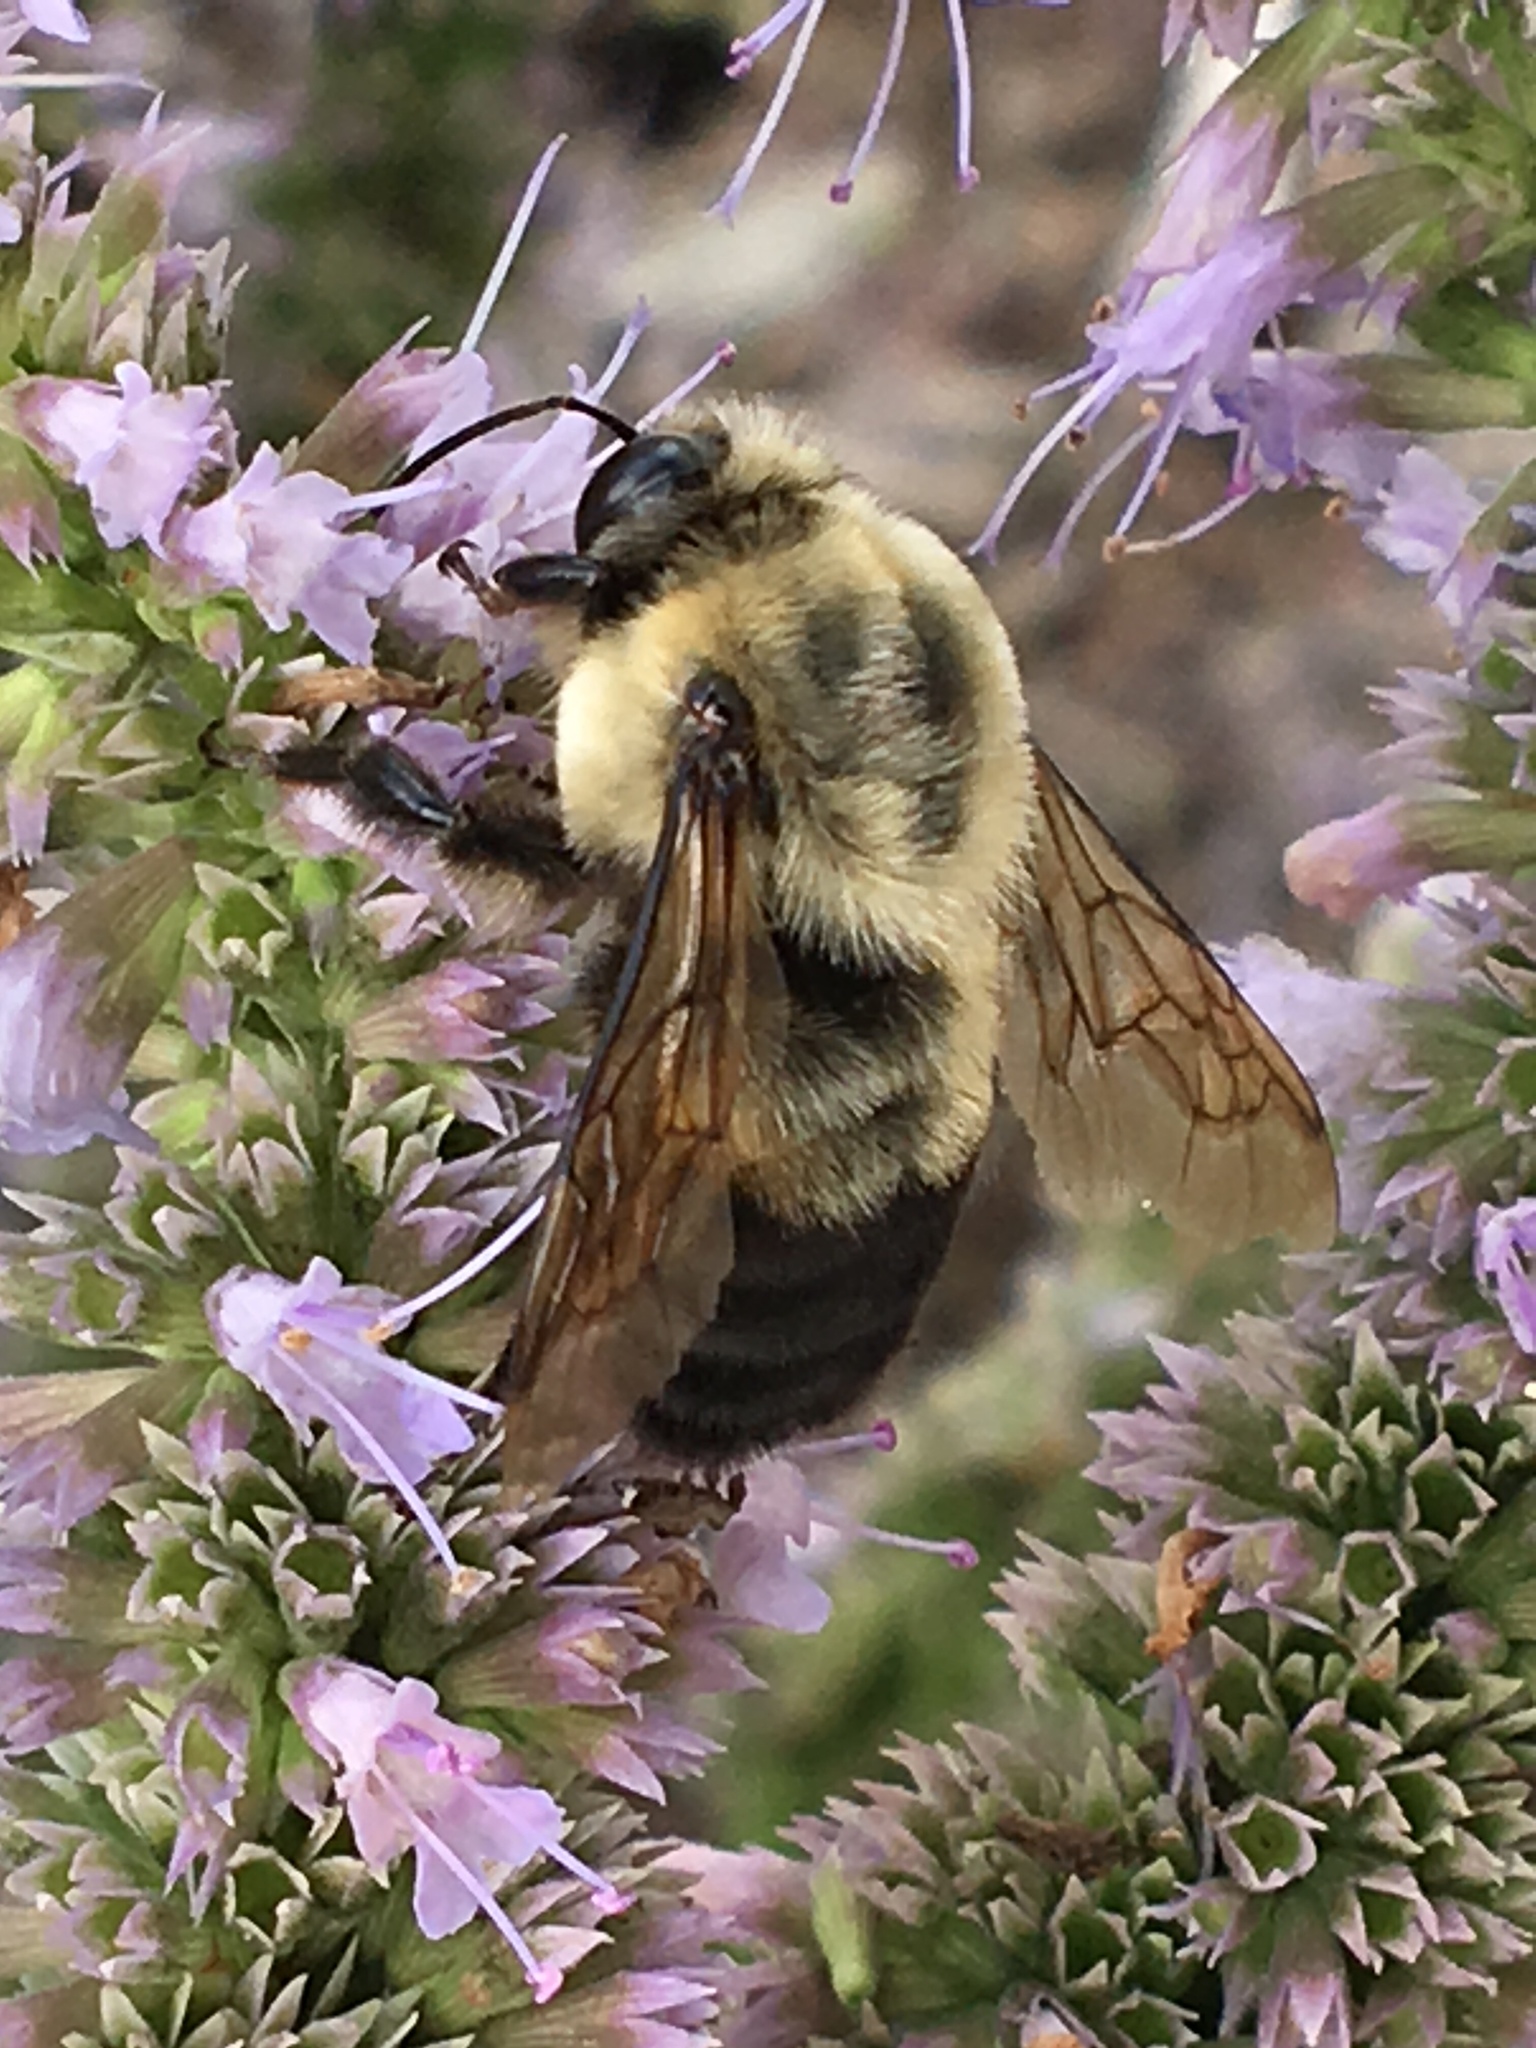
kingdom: Animalia
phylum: Arthropoda
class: Insecta
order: Hymenoptera
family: Apidae
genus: Bombus
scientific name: Bombus griseocollis
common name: Brown-belted bumble bee
